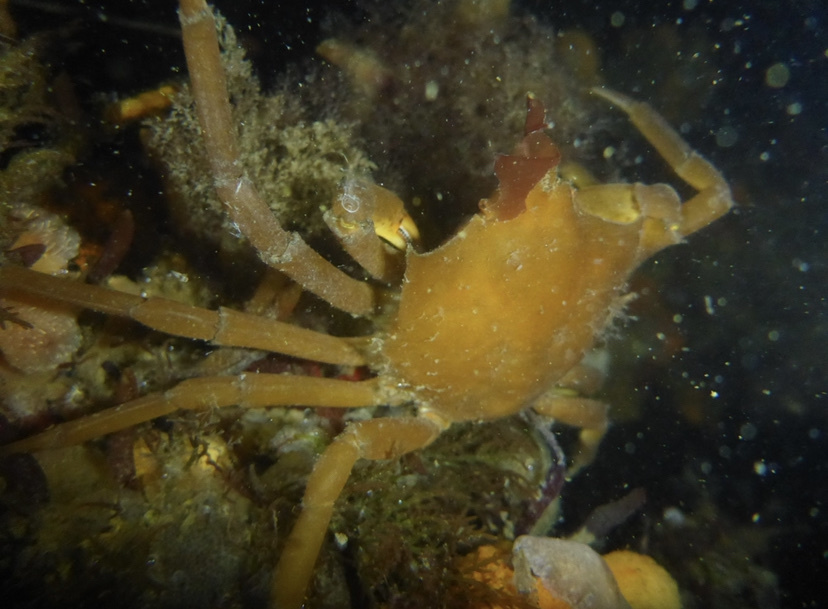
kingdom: Animalia
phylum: Arthropoda
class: Malacostraca
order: Decapoda
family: Epialtidae
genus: Pugettia
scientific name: Pugettia producta
